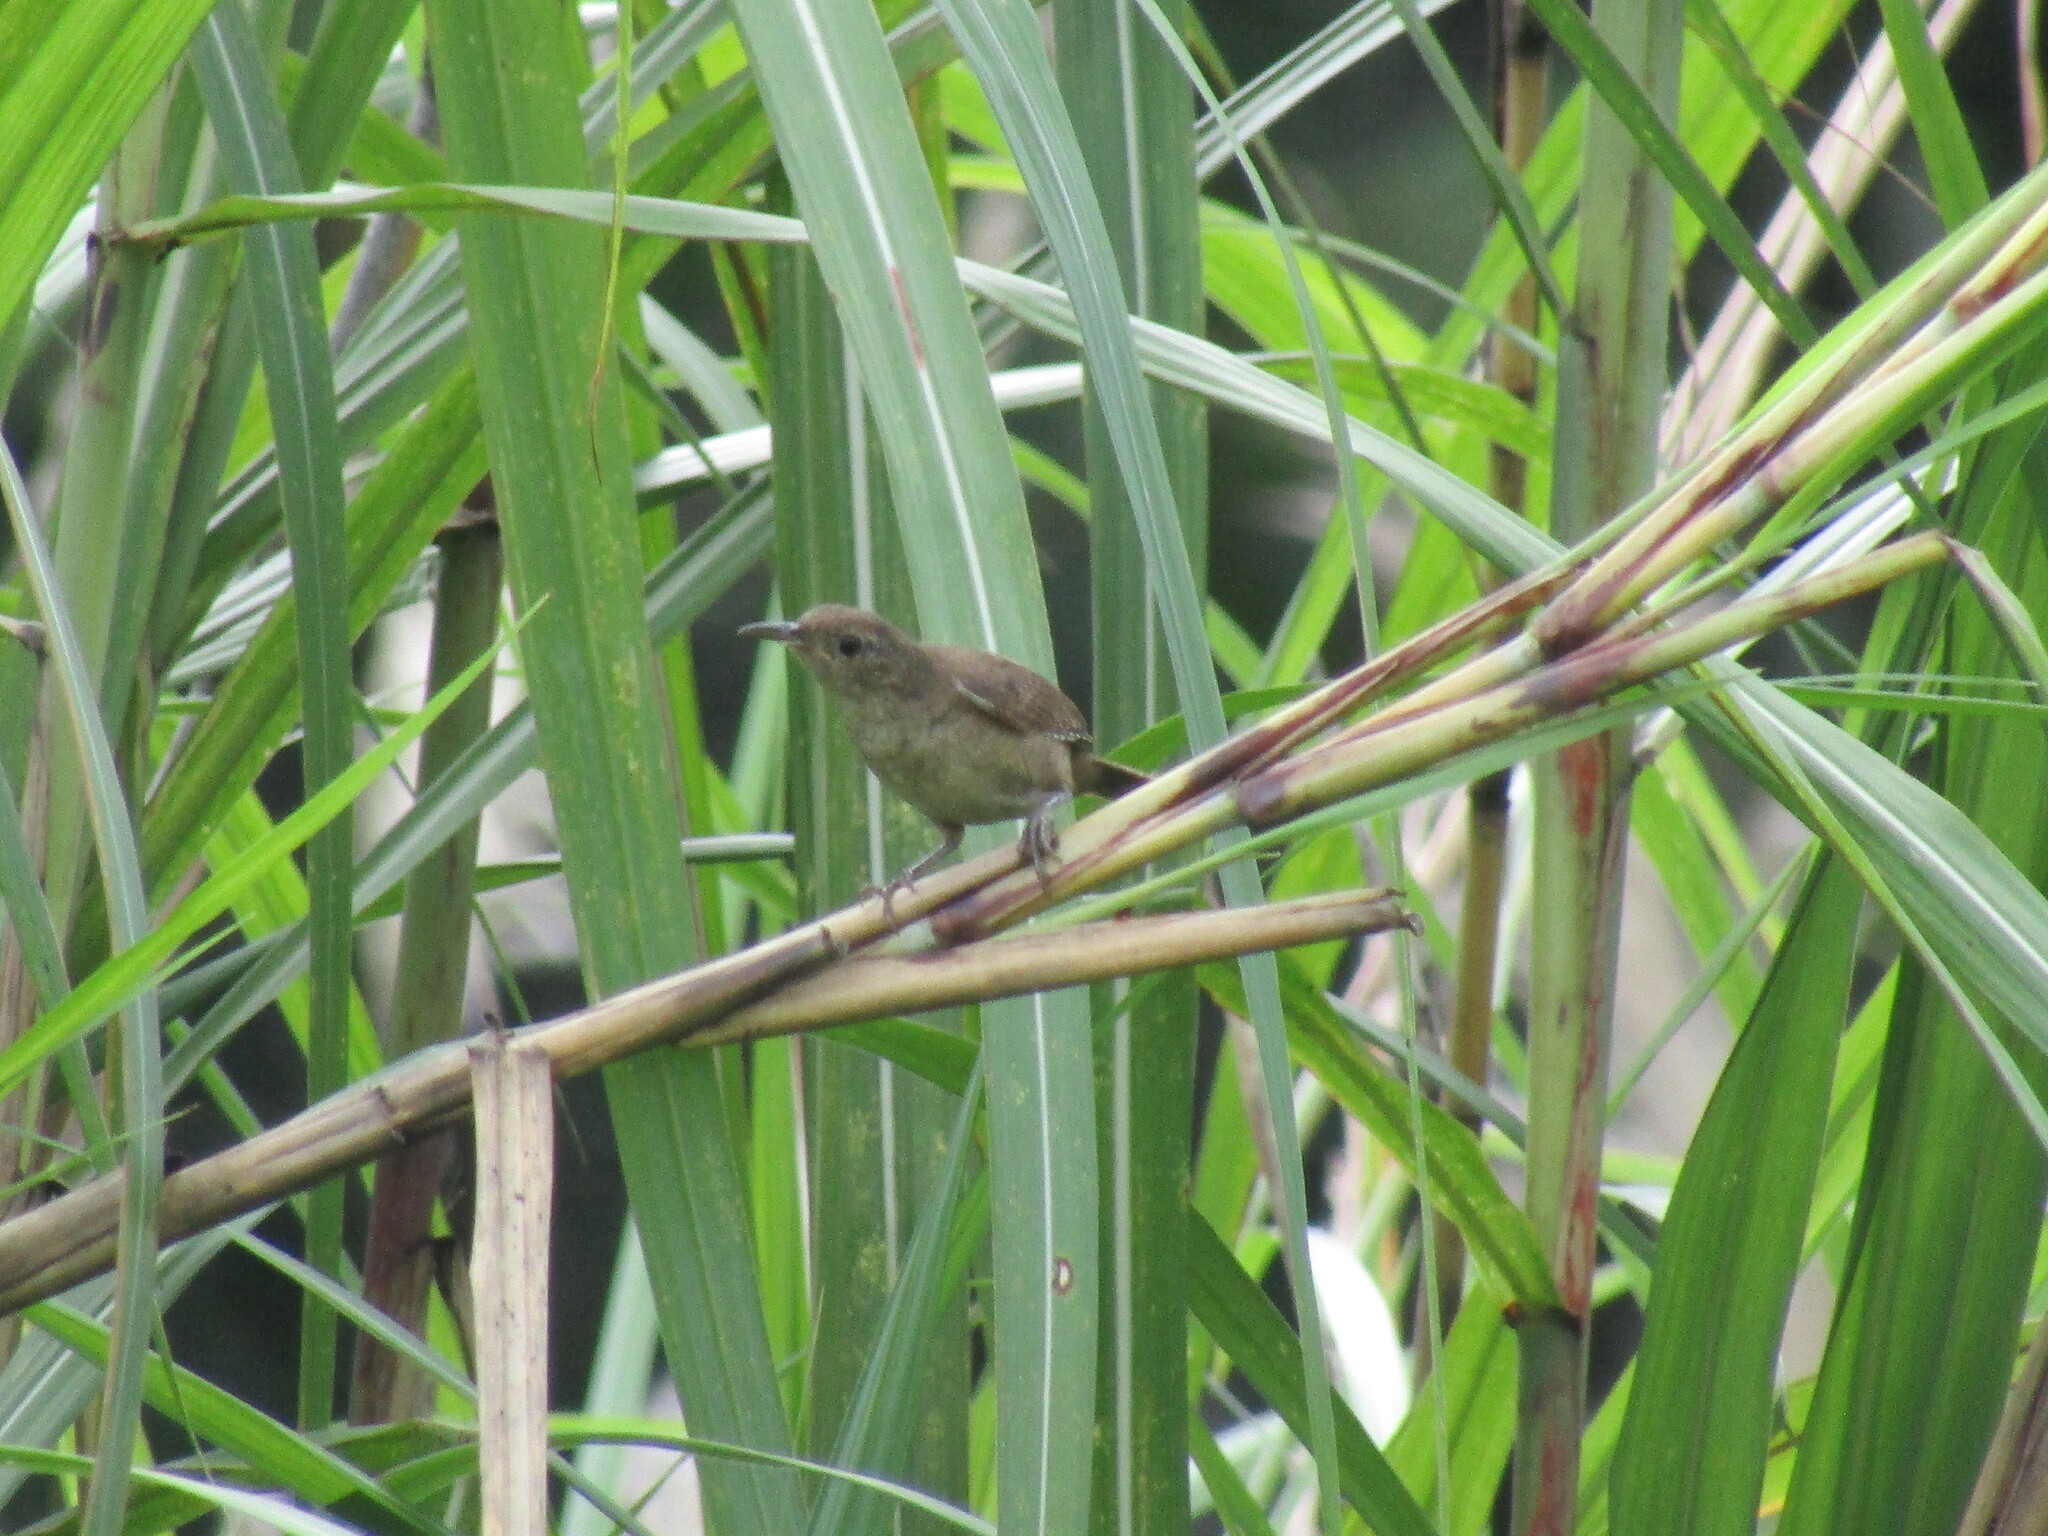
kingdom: Animalia
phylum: Chordata
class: Aves
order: Passeriformes
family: Troglodytidae
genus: Troglodytes
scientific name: Troglodytes aedon
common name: House wren
